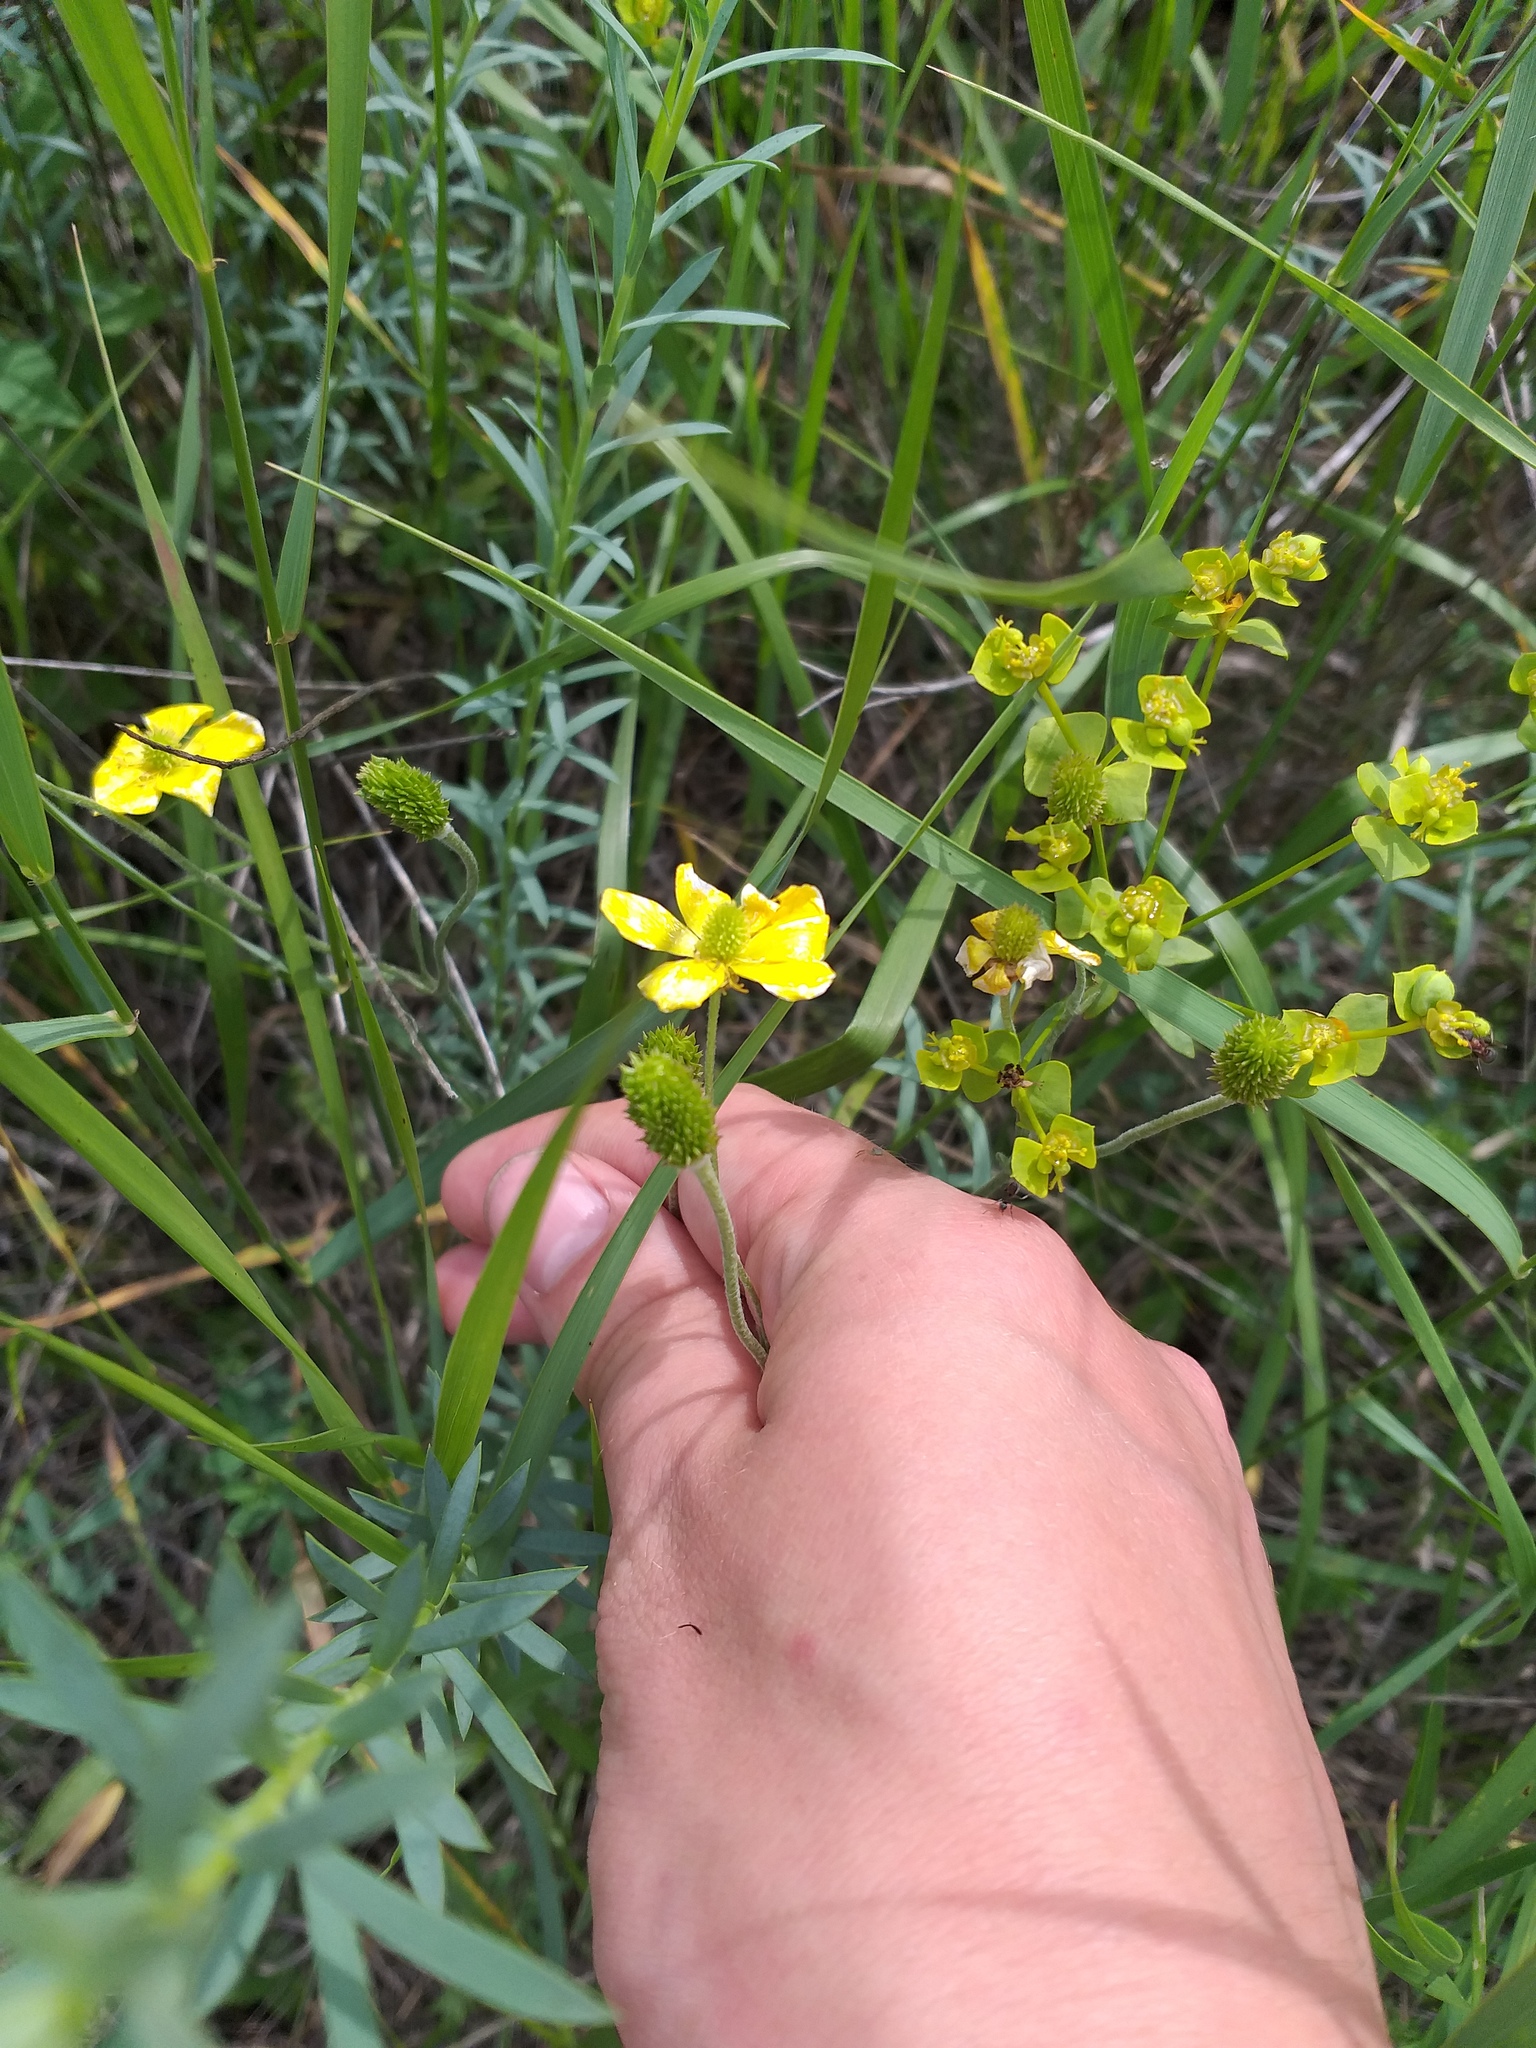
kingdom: Plantae
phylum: Tracheophyta
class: Magnoliopsida
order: Ranunculales
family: Ranunculaceae
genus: Ranunculus
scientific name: Ranunculus illyricus
